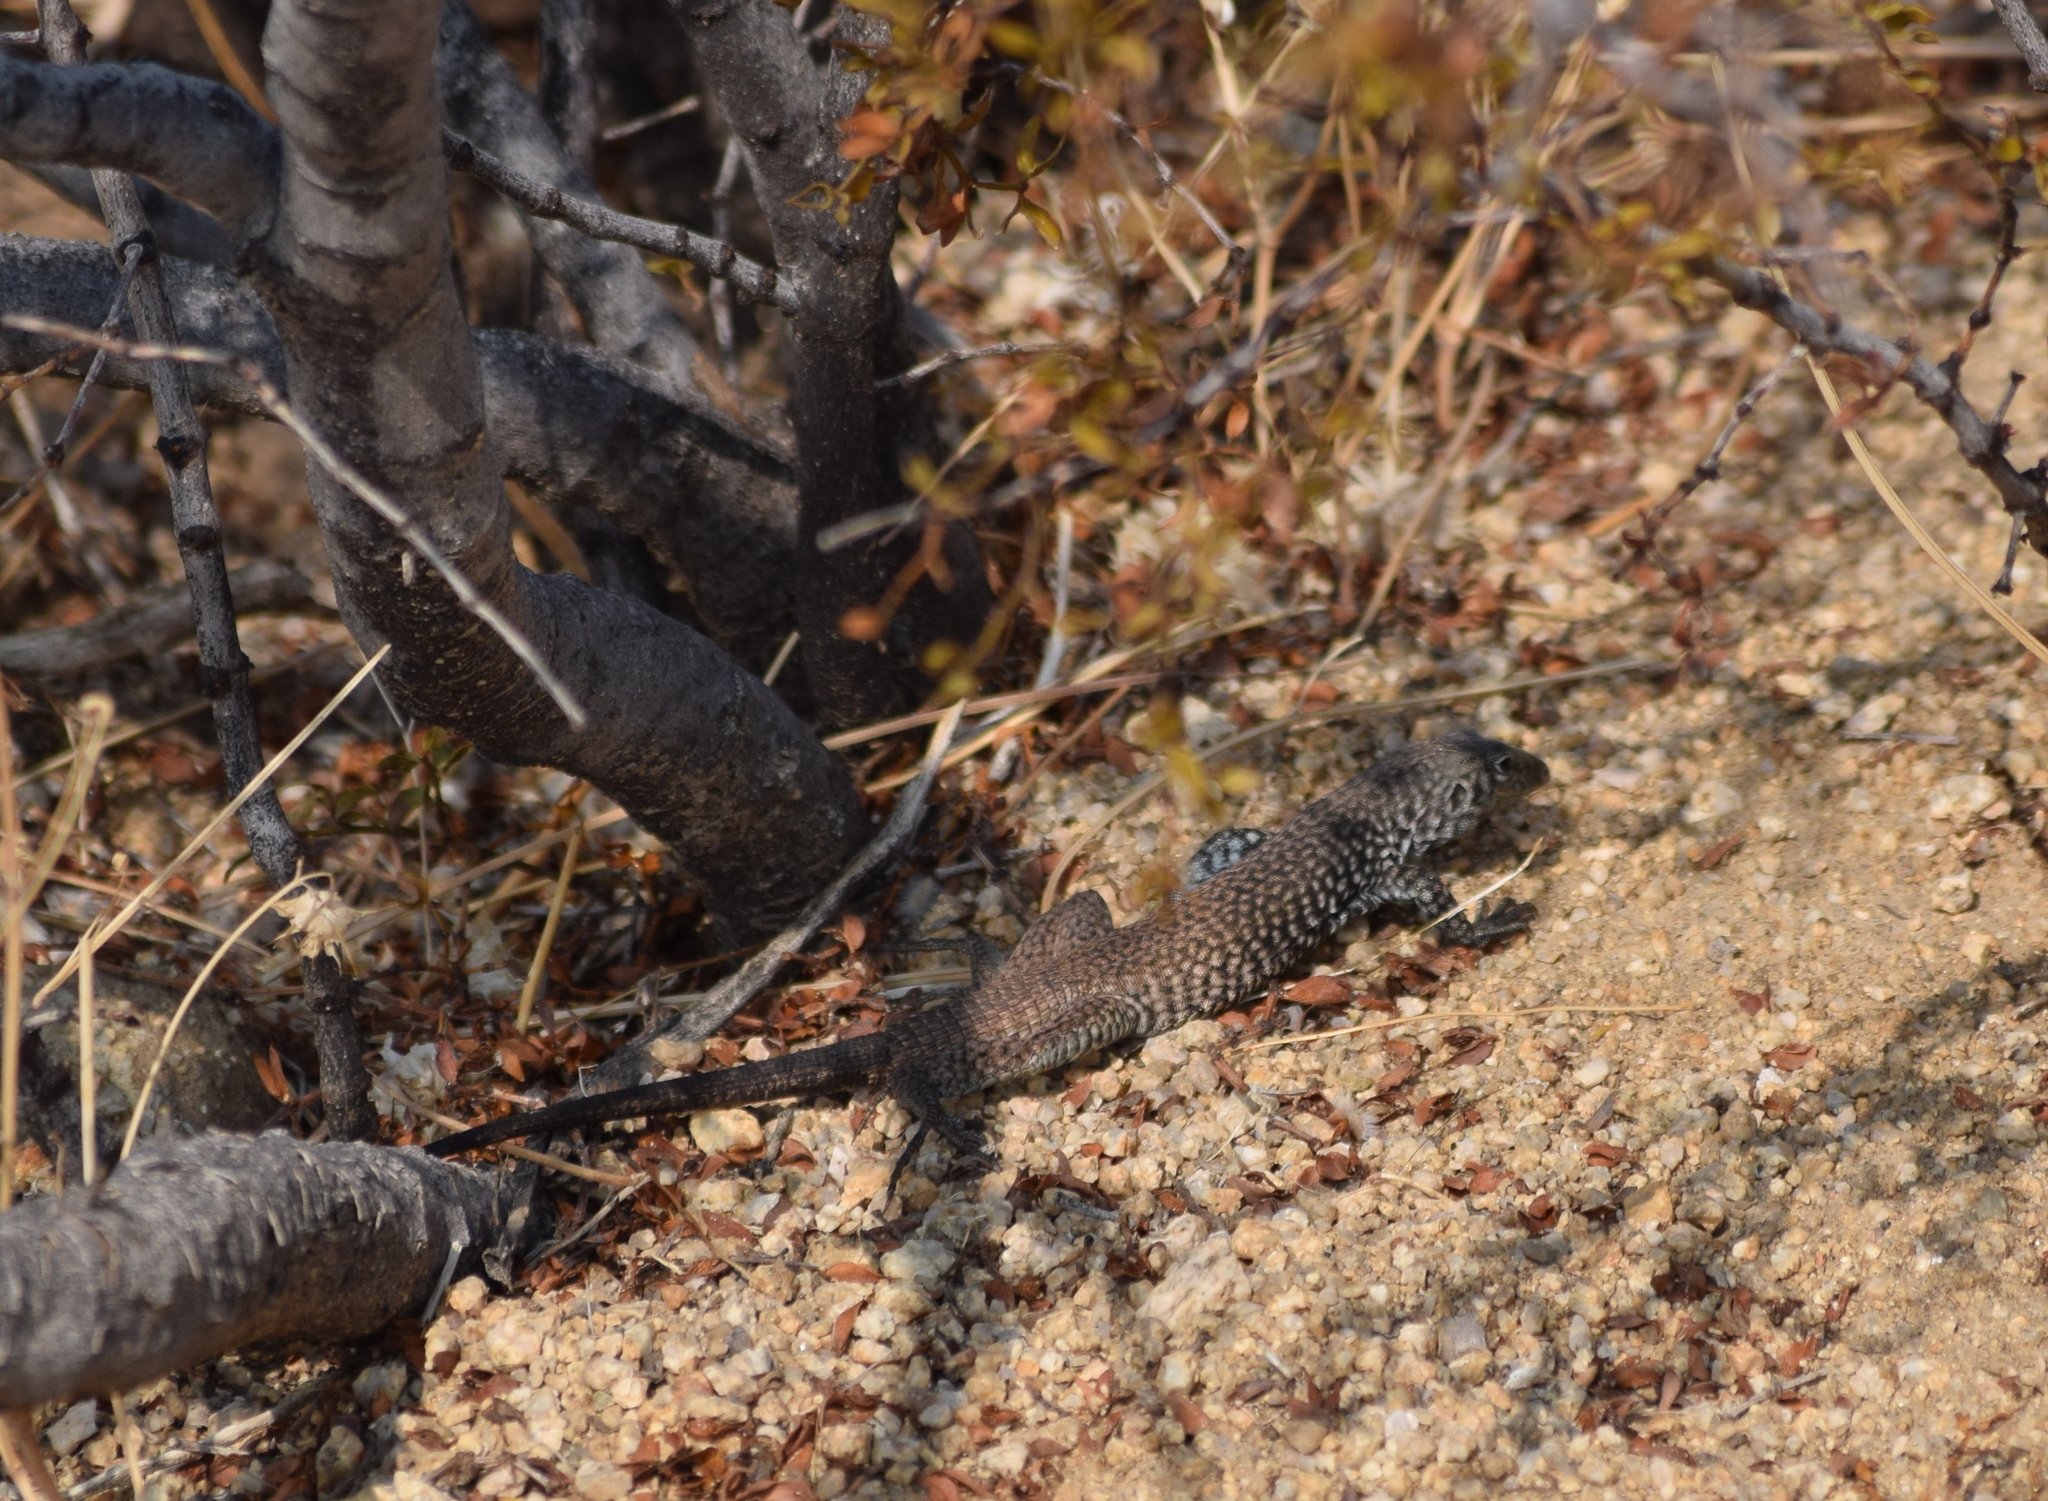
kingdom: Animalia
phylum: Chordata
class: Squamata
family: Teiidae
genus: Aspidoscelis
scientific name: Aspidoscelis tigris
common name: Tiger whiptail
